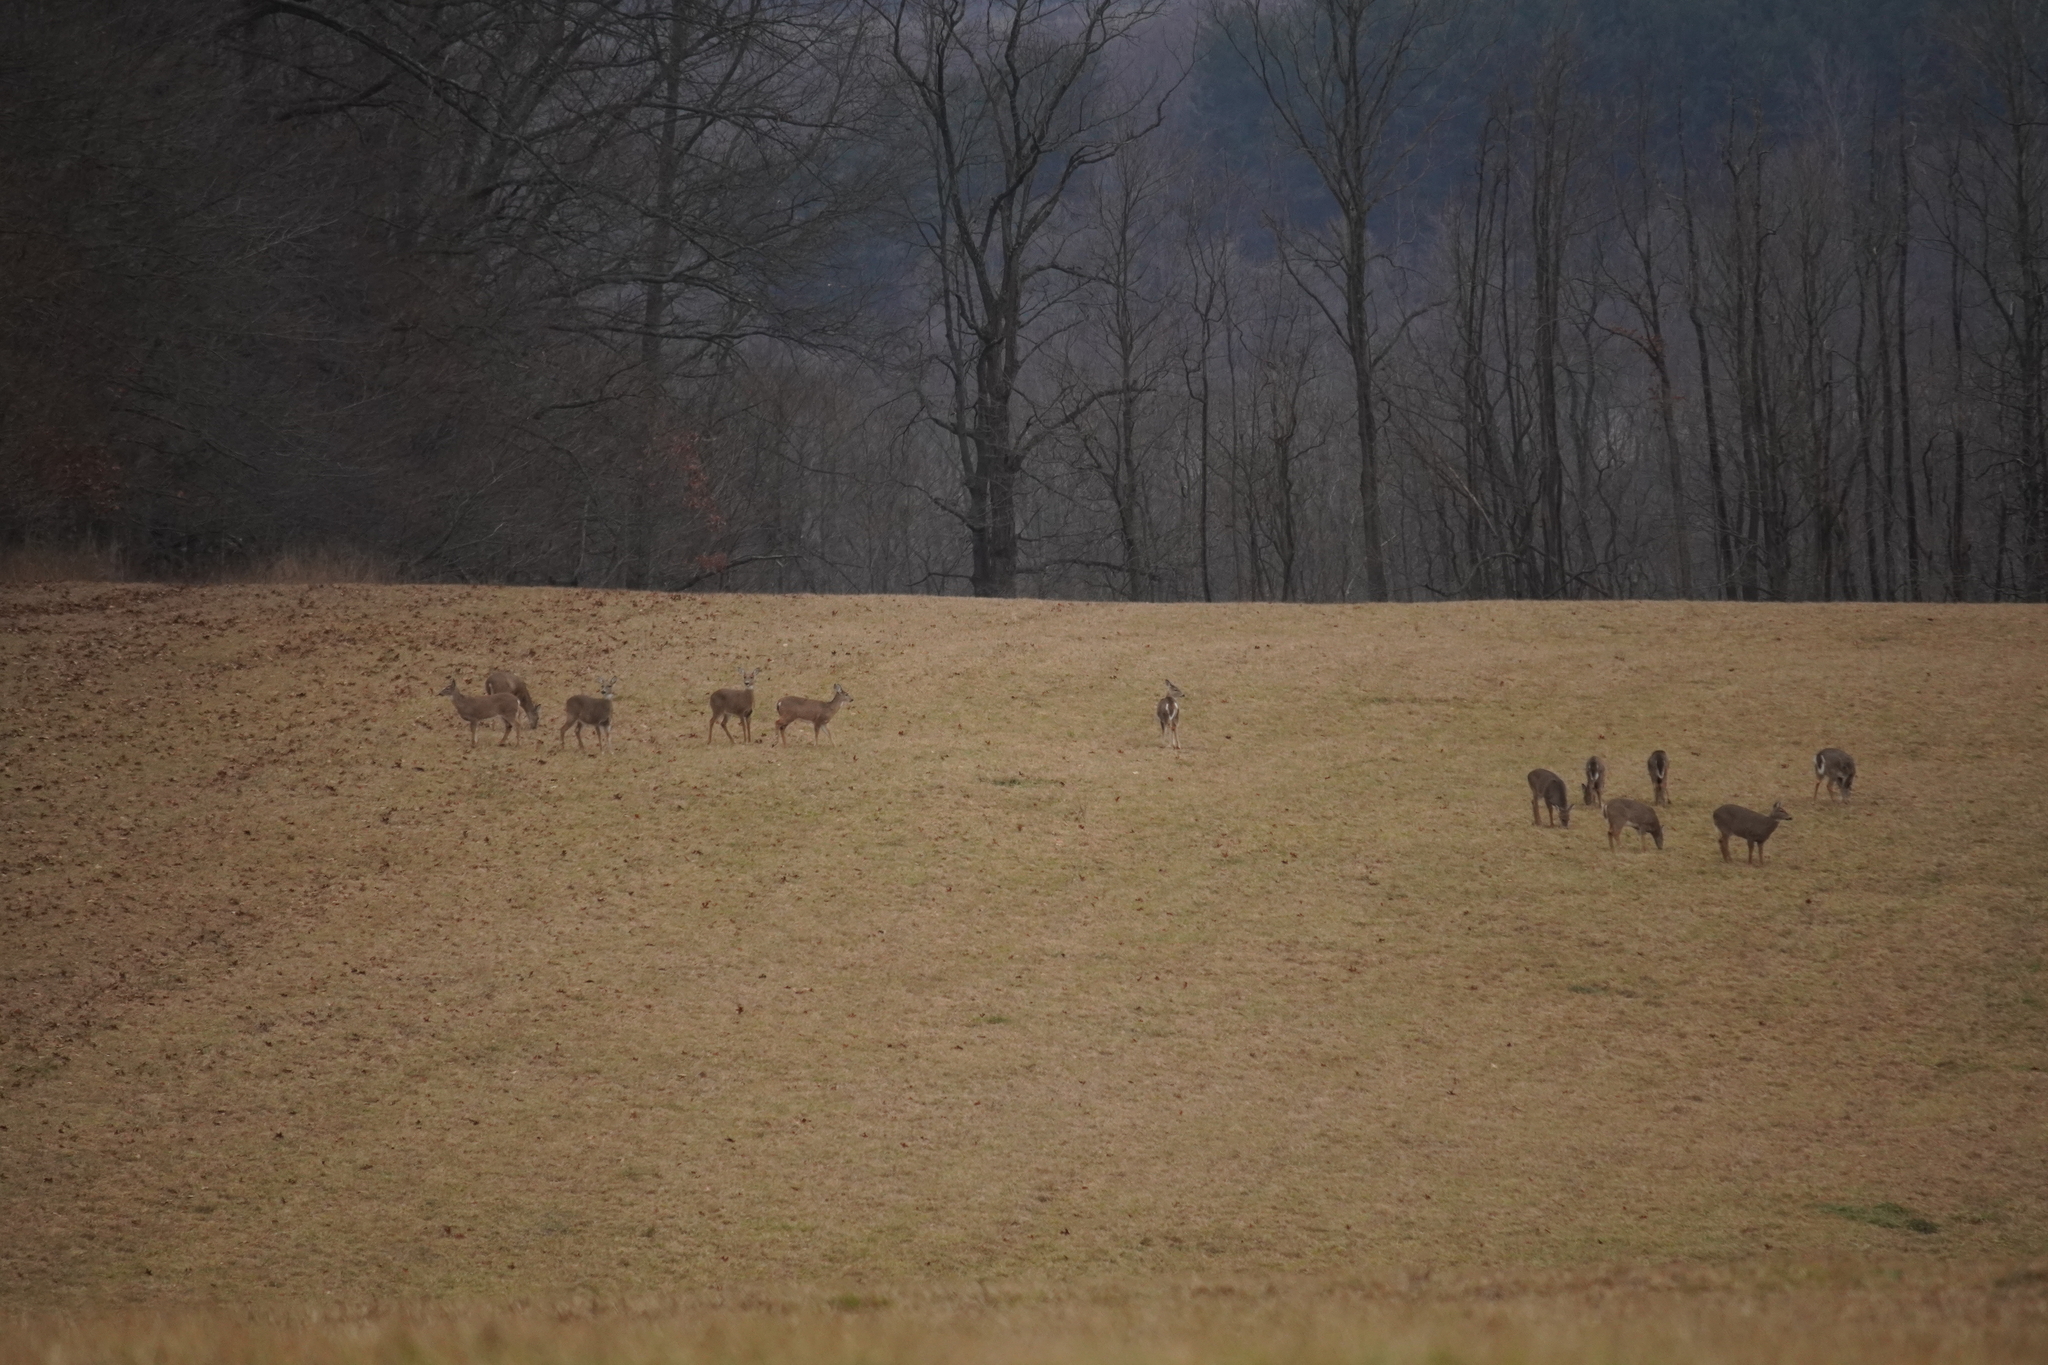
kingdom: Animalia
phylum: Chordata
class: Mammalia
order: Artiodactyla
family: Cervidae
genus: Odocoileus
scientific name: Odocoileus virginianus
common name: White-tailed deer
